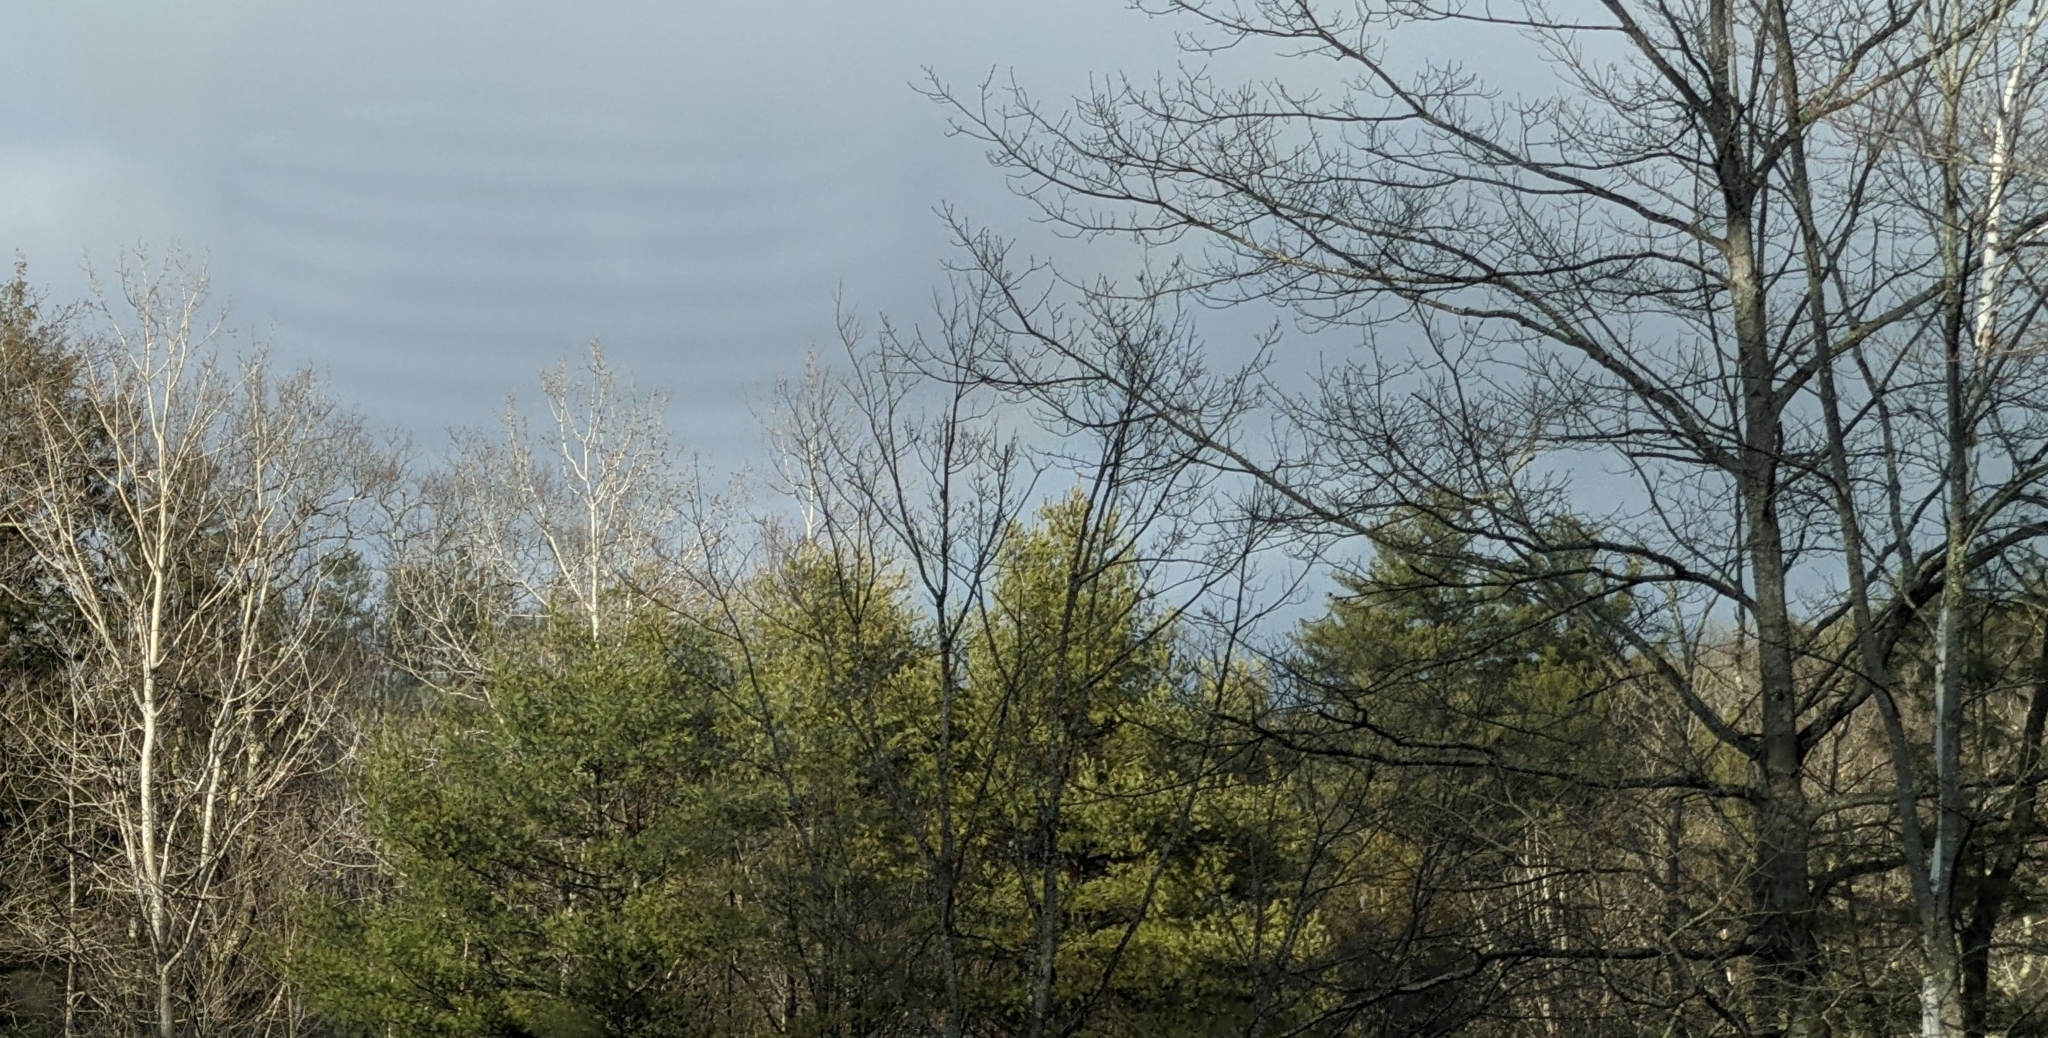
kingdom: Plantae
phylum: Tracheophyta
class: Pinopsida
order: Pinales
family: Pinaceae
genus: Pinus
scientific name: Pinus strobus
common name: Weymouth pine
